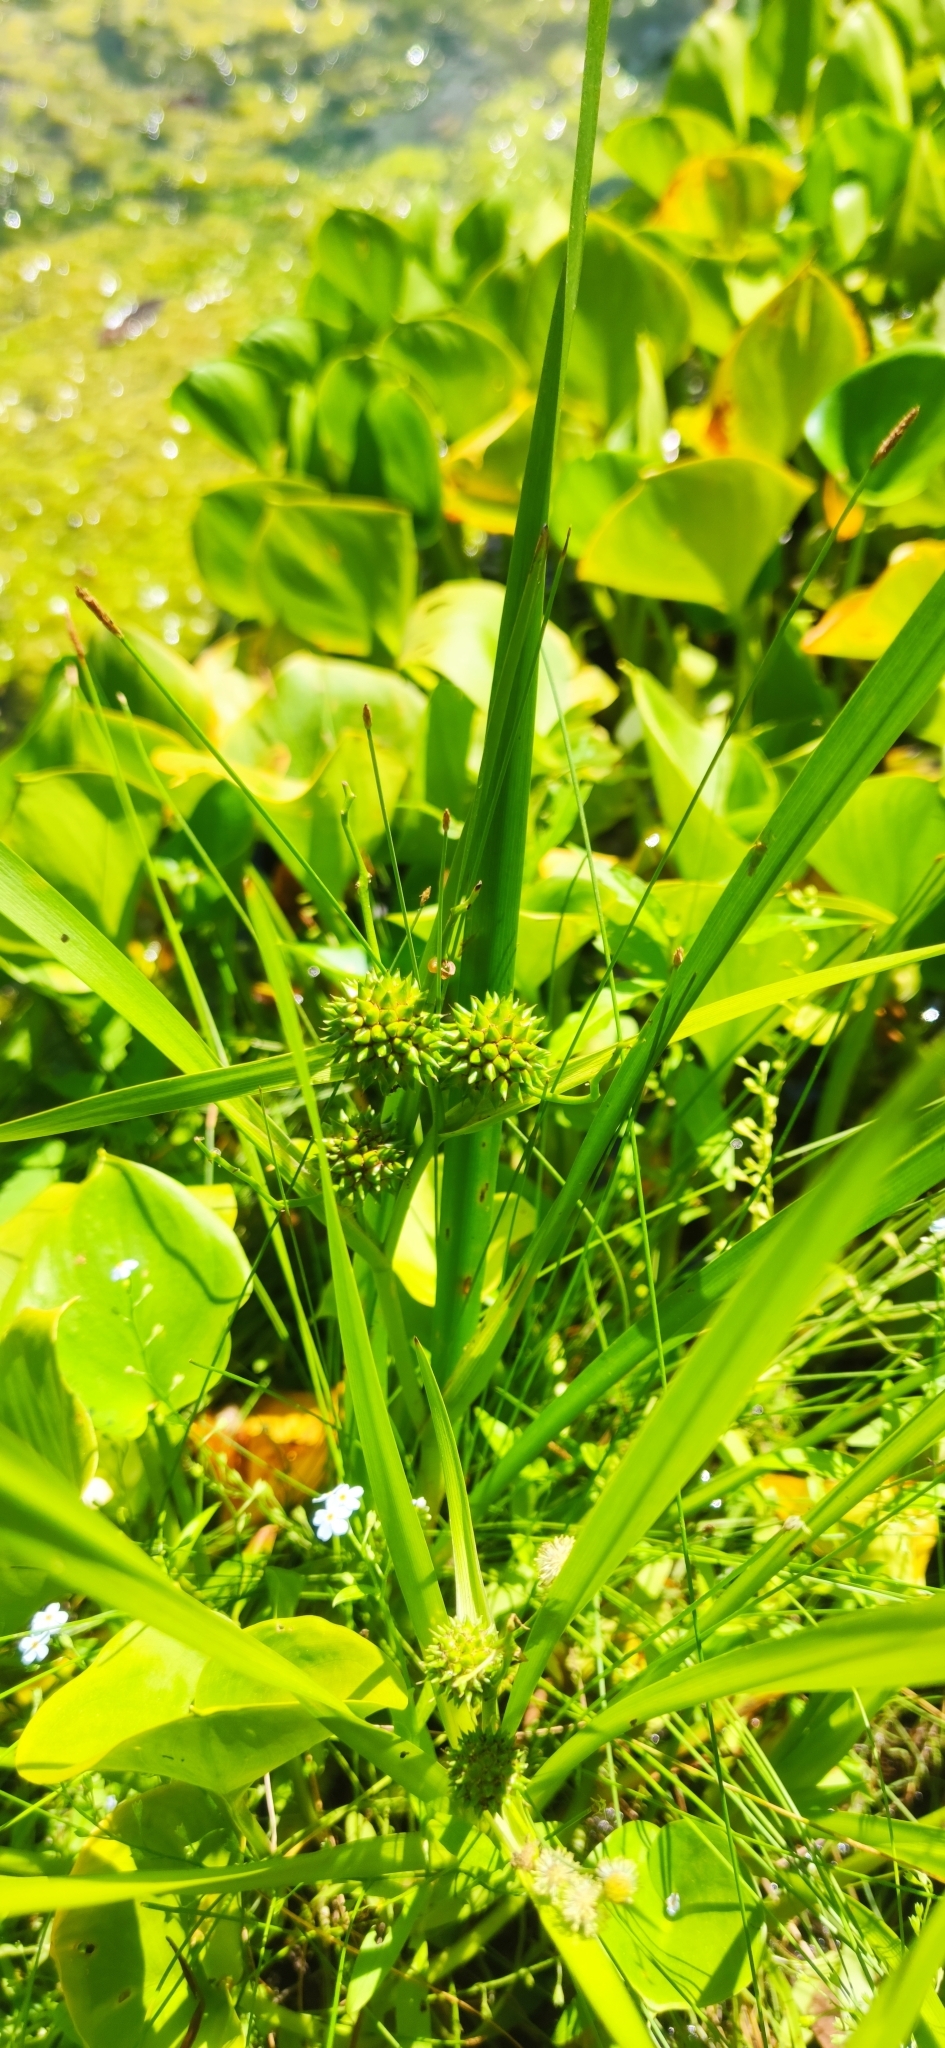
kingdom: Plantae
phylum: Tracheophyta
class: Liliopsida
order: Poales
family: Typhaceae
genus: Sparganium
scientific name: Sparganium erectum
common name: Branched bur-reed
